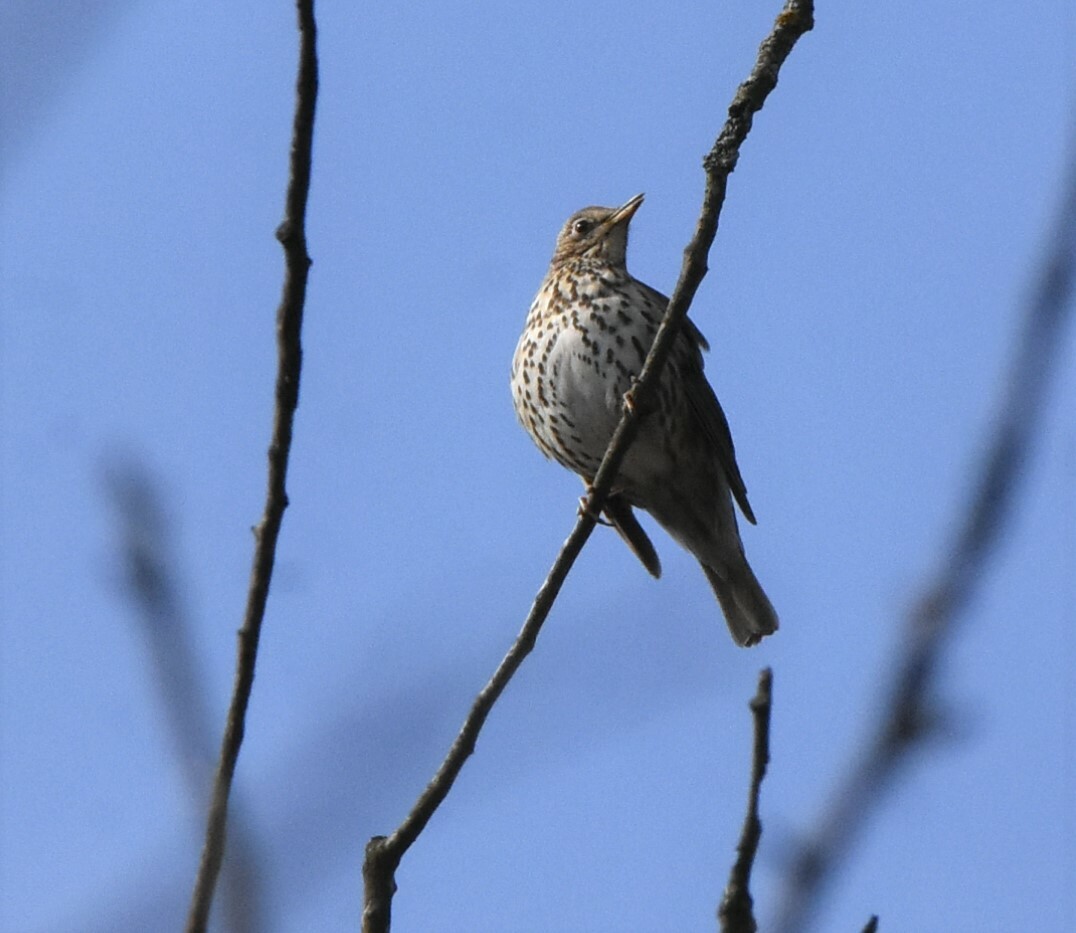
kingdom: Animalia
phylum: Chordata
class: Aves
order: Passeriformes
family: Turdidae
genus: Turdus
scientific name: Turdus philomelos
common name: Song thrush
